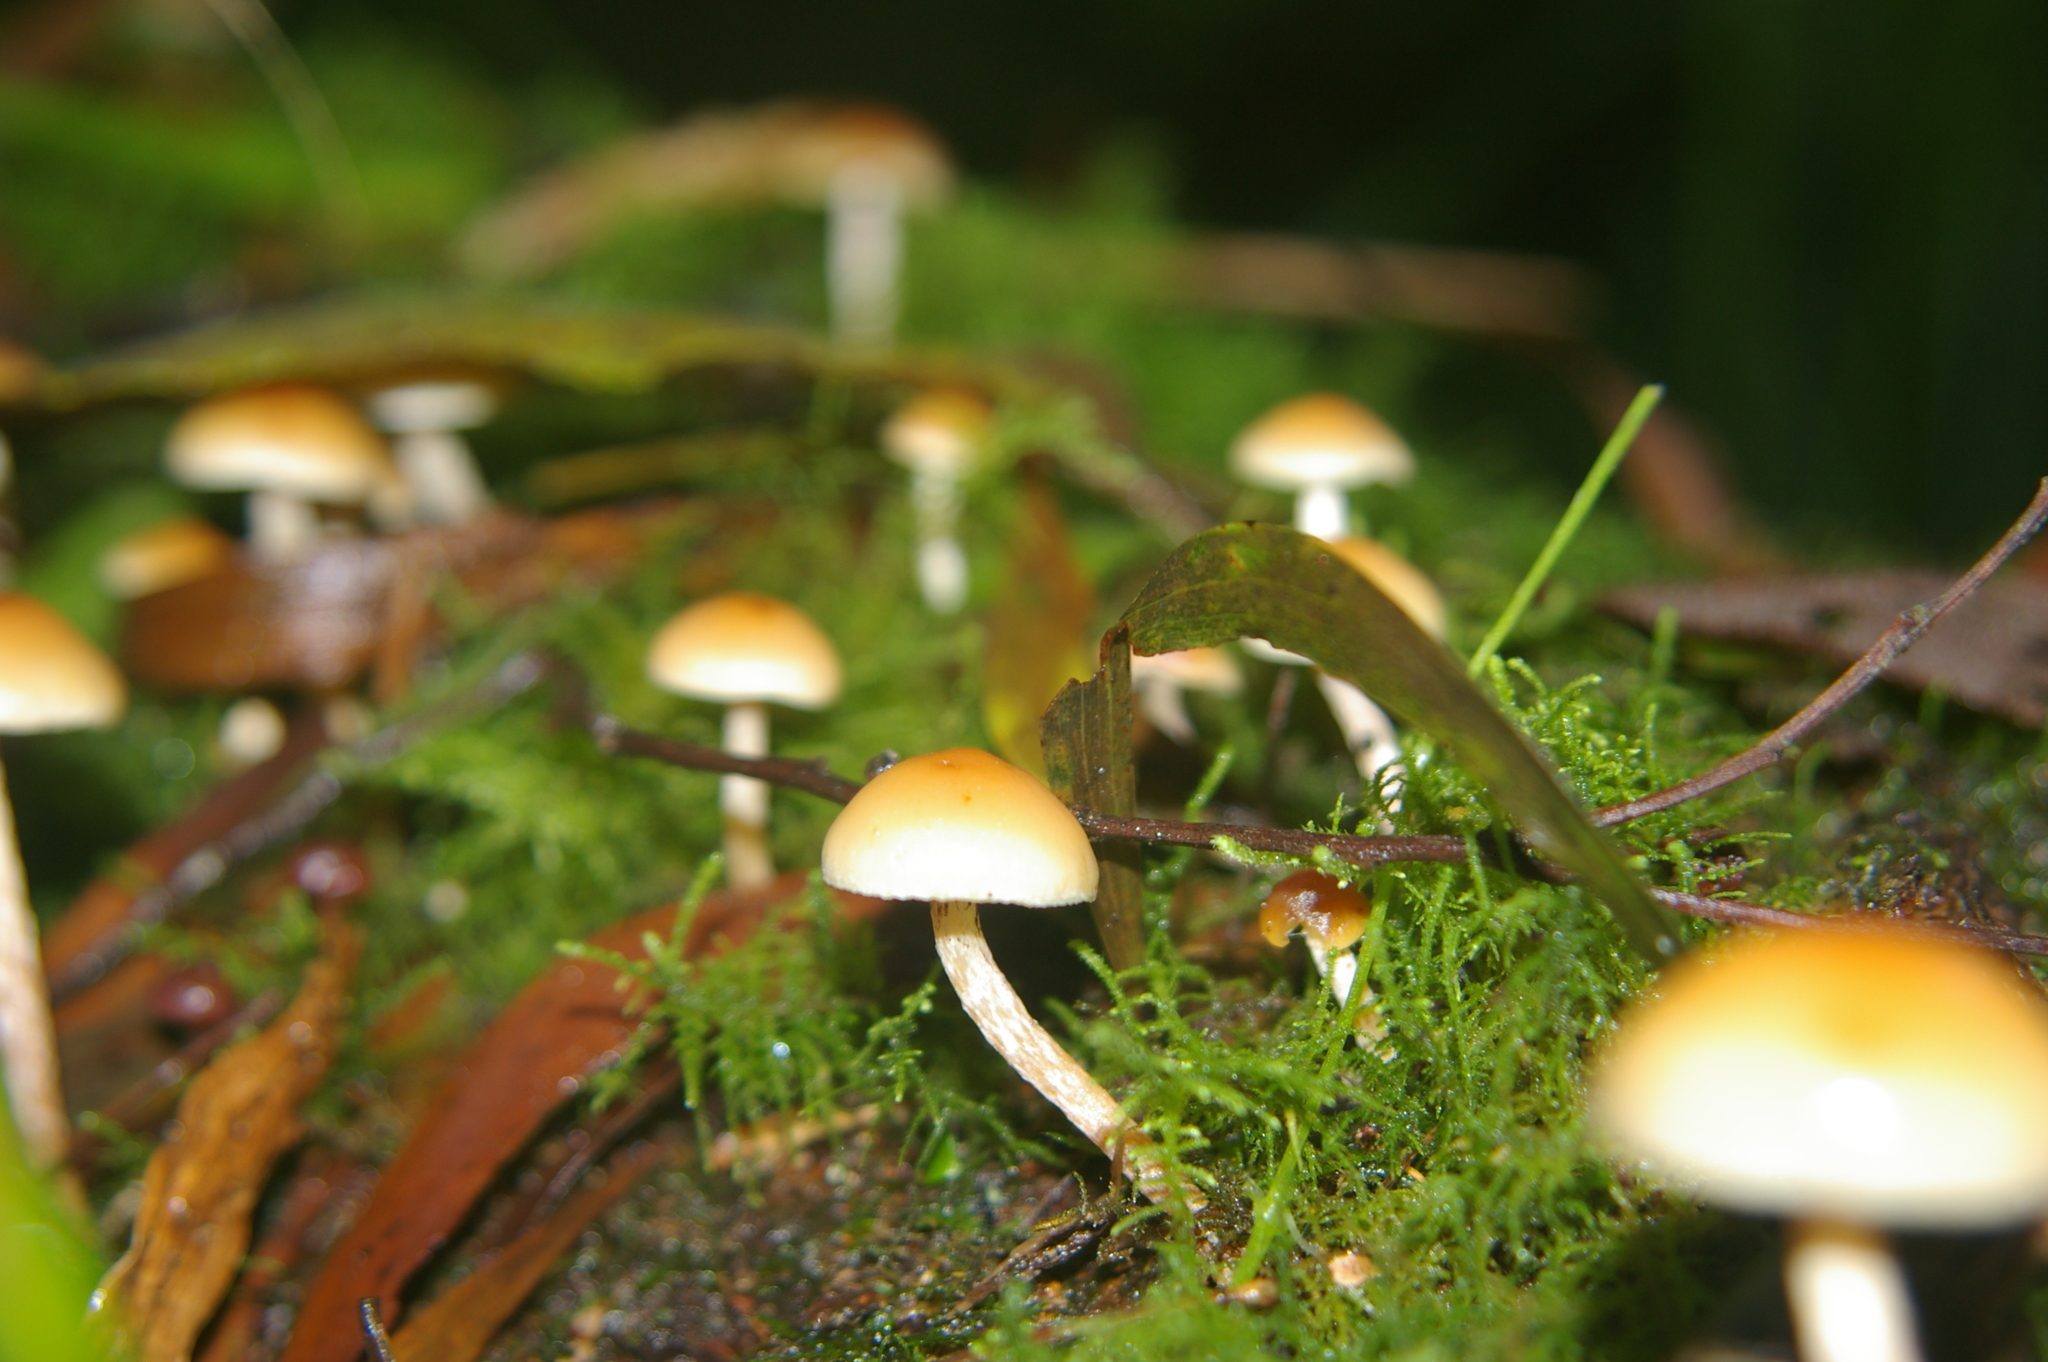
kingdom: Fungi
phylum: Basidiomycota
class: Agaricomycetes
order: Agaricales
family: Strophariaceae
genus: Hypholoma
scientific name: Hypholoma fasciculare
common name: Sulphur tuft
